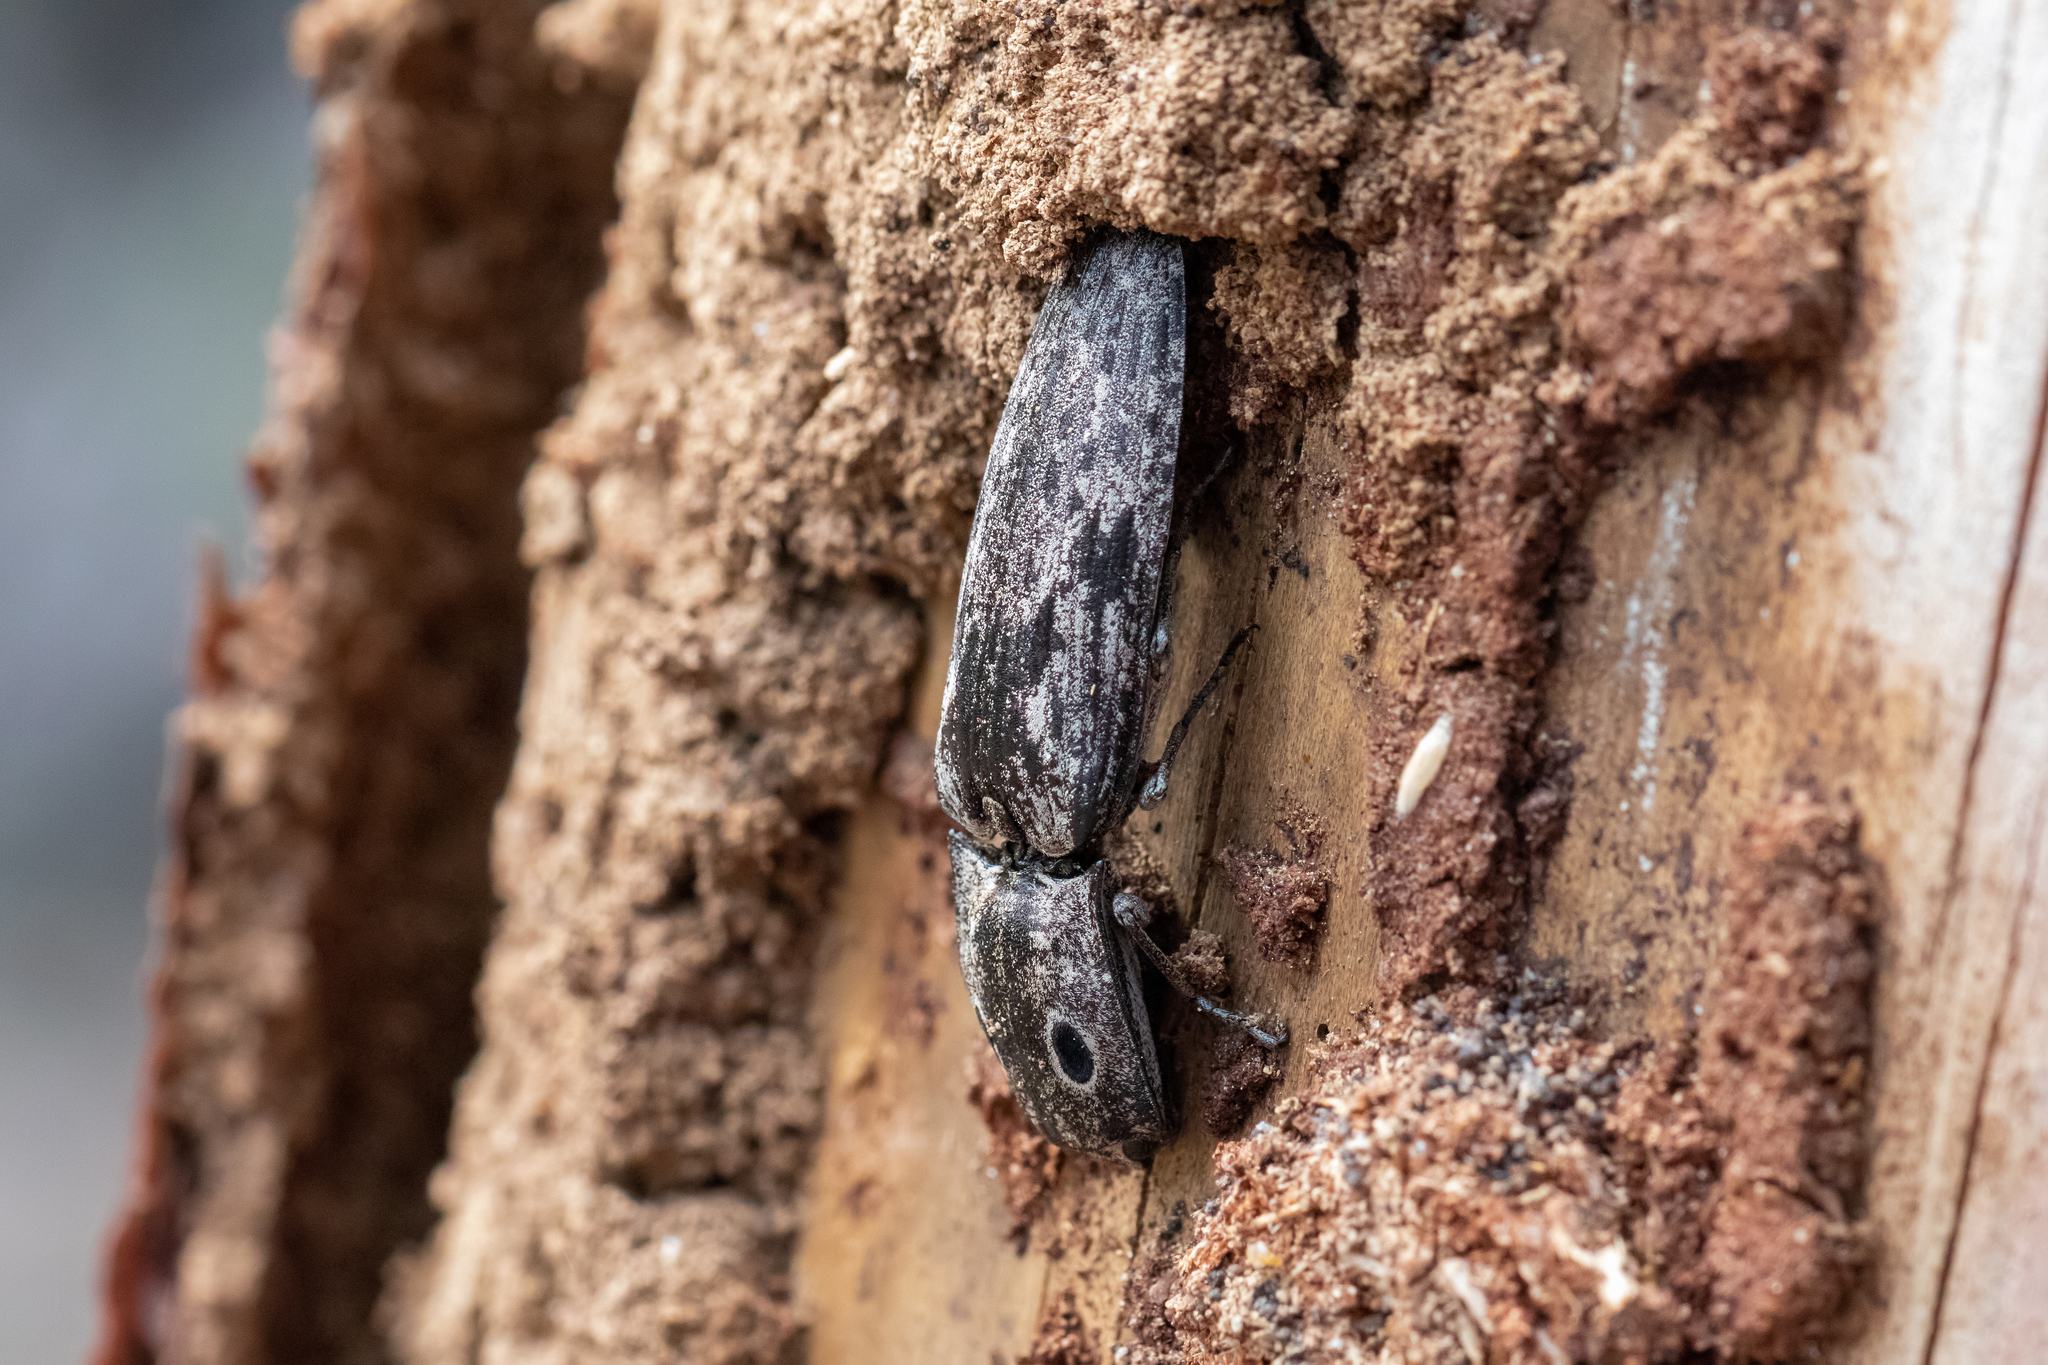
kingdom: Animalia
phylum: Arthropoda
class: Insecta
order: Coleoptera
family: Elateridae
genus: Alaus
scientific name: Alaus myops
